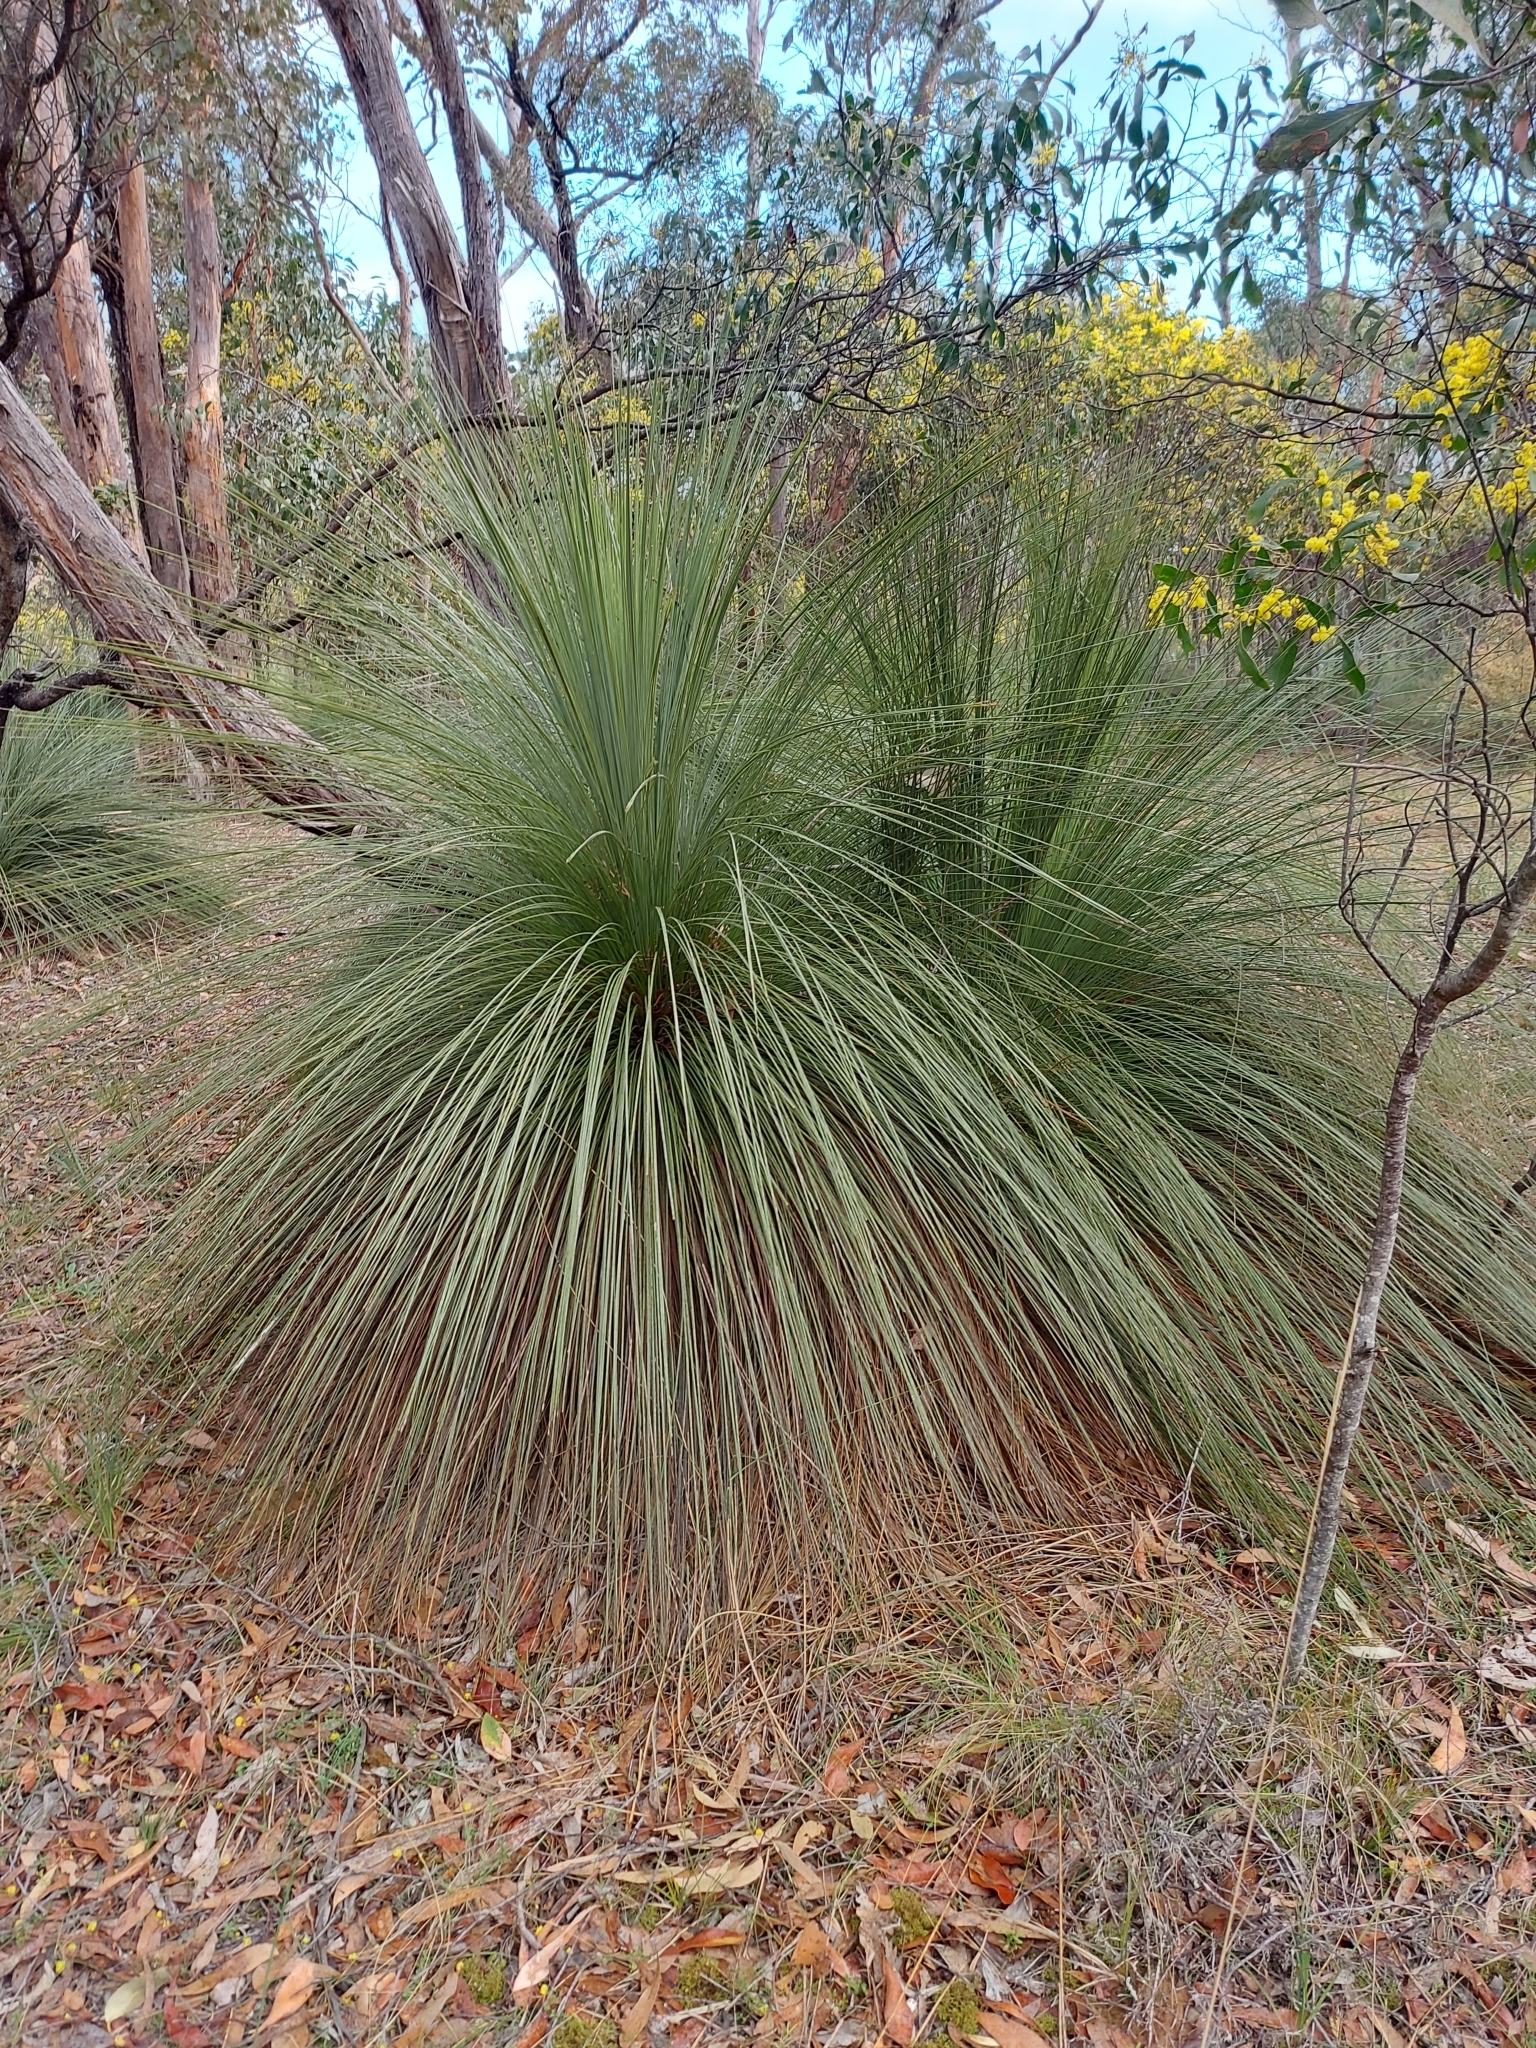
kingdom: Plantae
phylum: Tracheophyta
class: Liliopsida
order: Asparagales
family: Asphodelaceae
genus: Xanthorrhoea
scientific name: Xanthorrhoea australis
